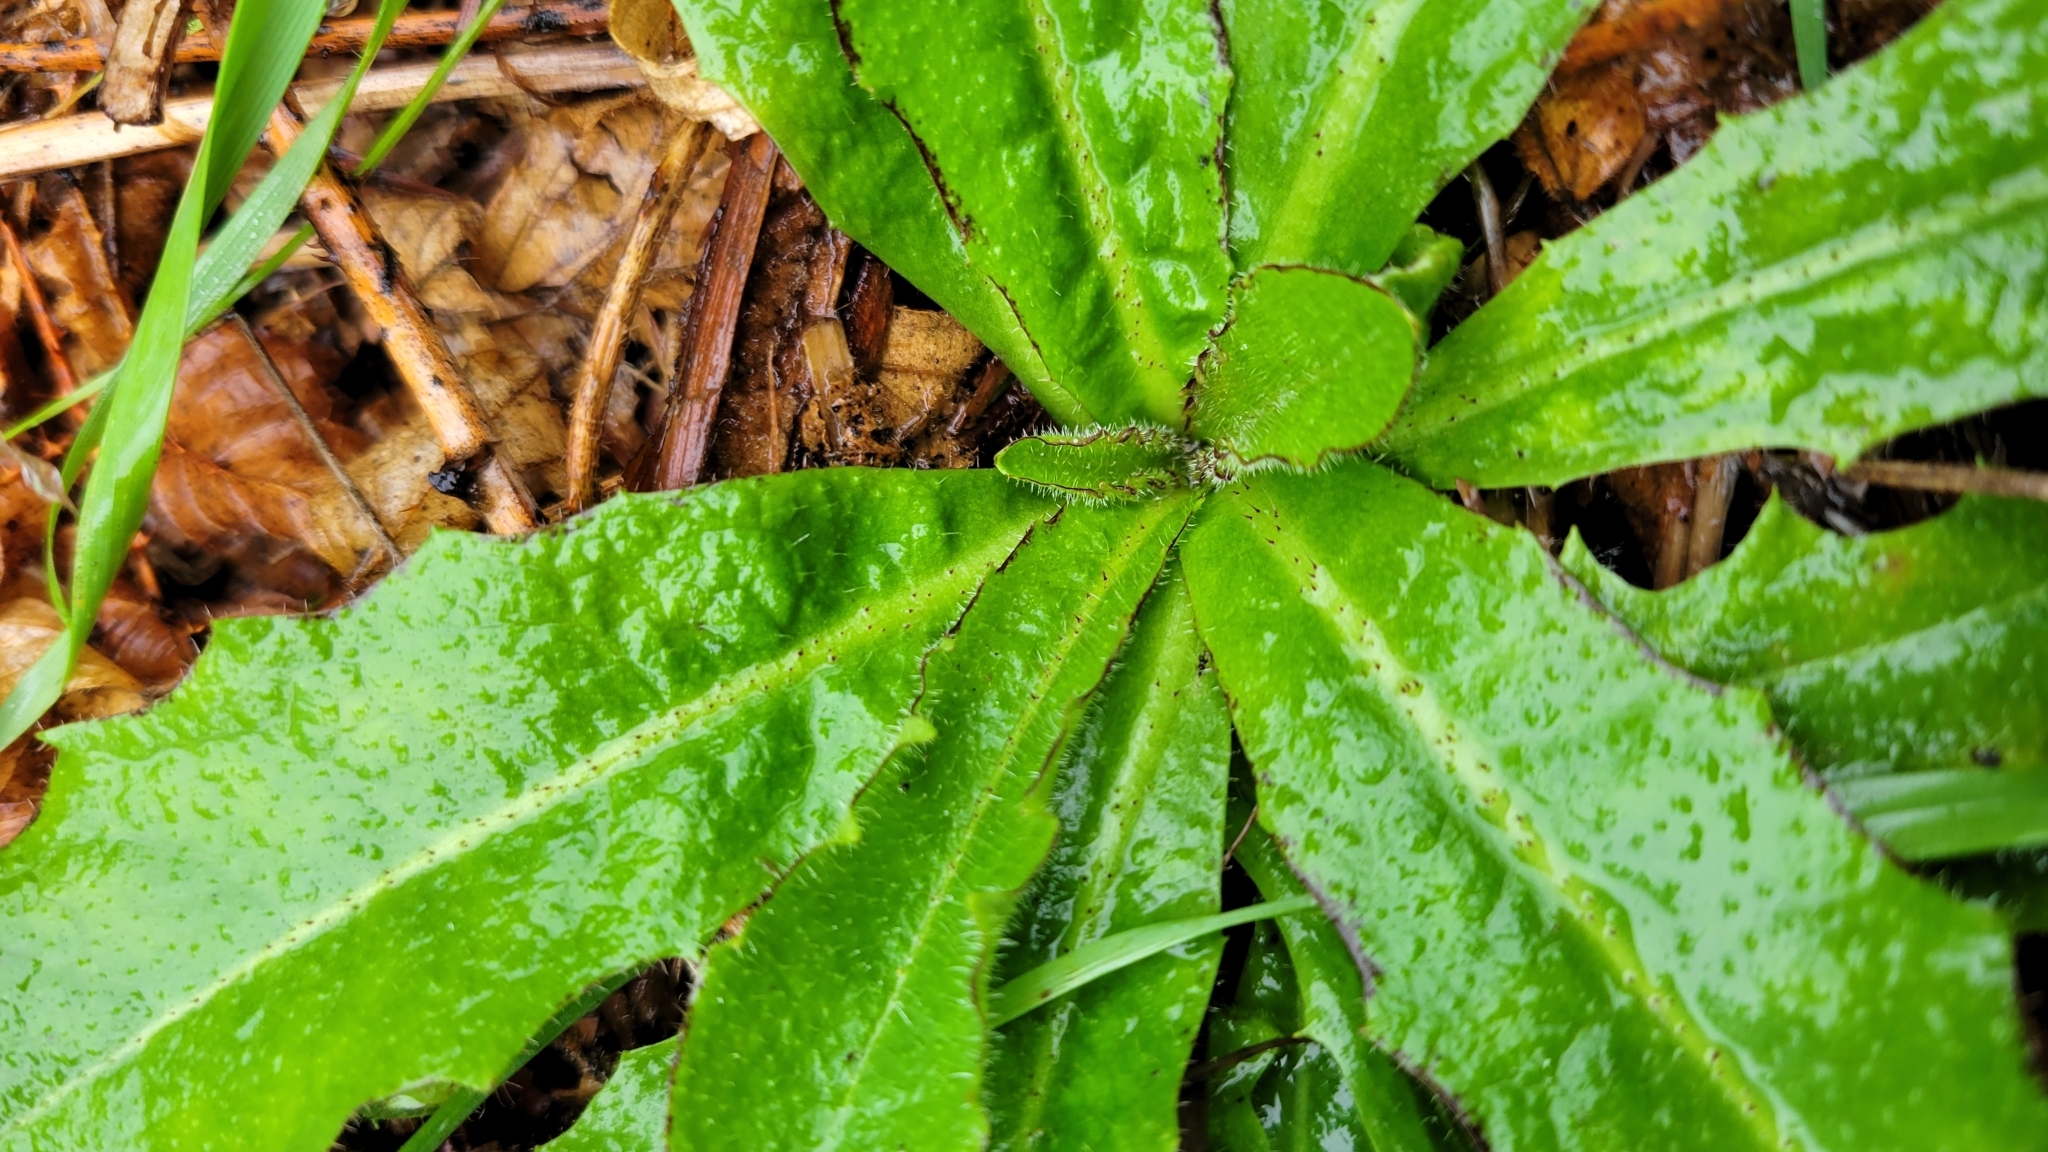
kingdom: Plantae
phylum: Tracheophyta
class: Magnoliopsida
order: Asterales
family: Asteraceae
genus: Hypochaeris
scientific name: Hypochaeris radicata
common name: Flatweed
